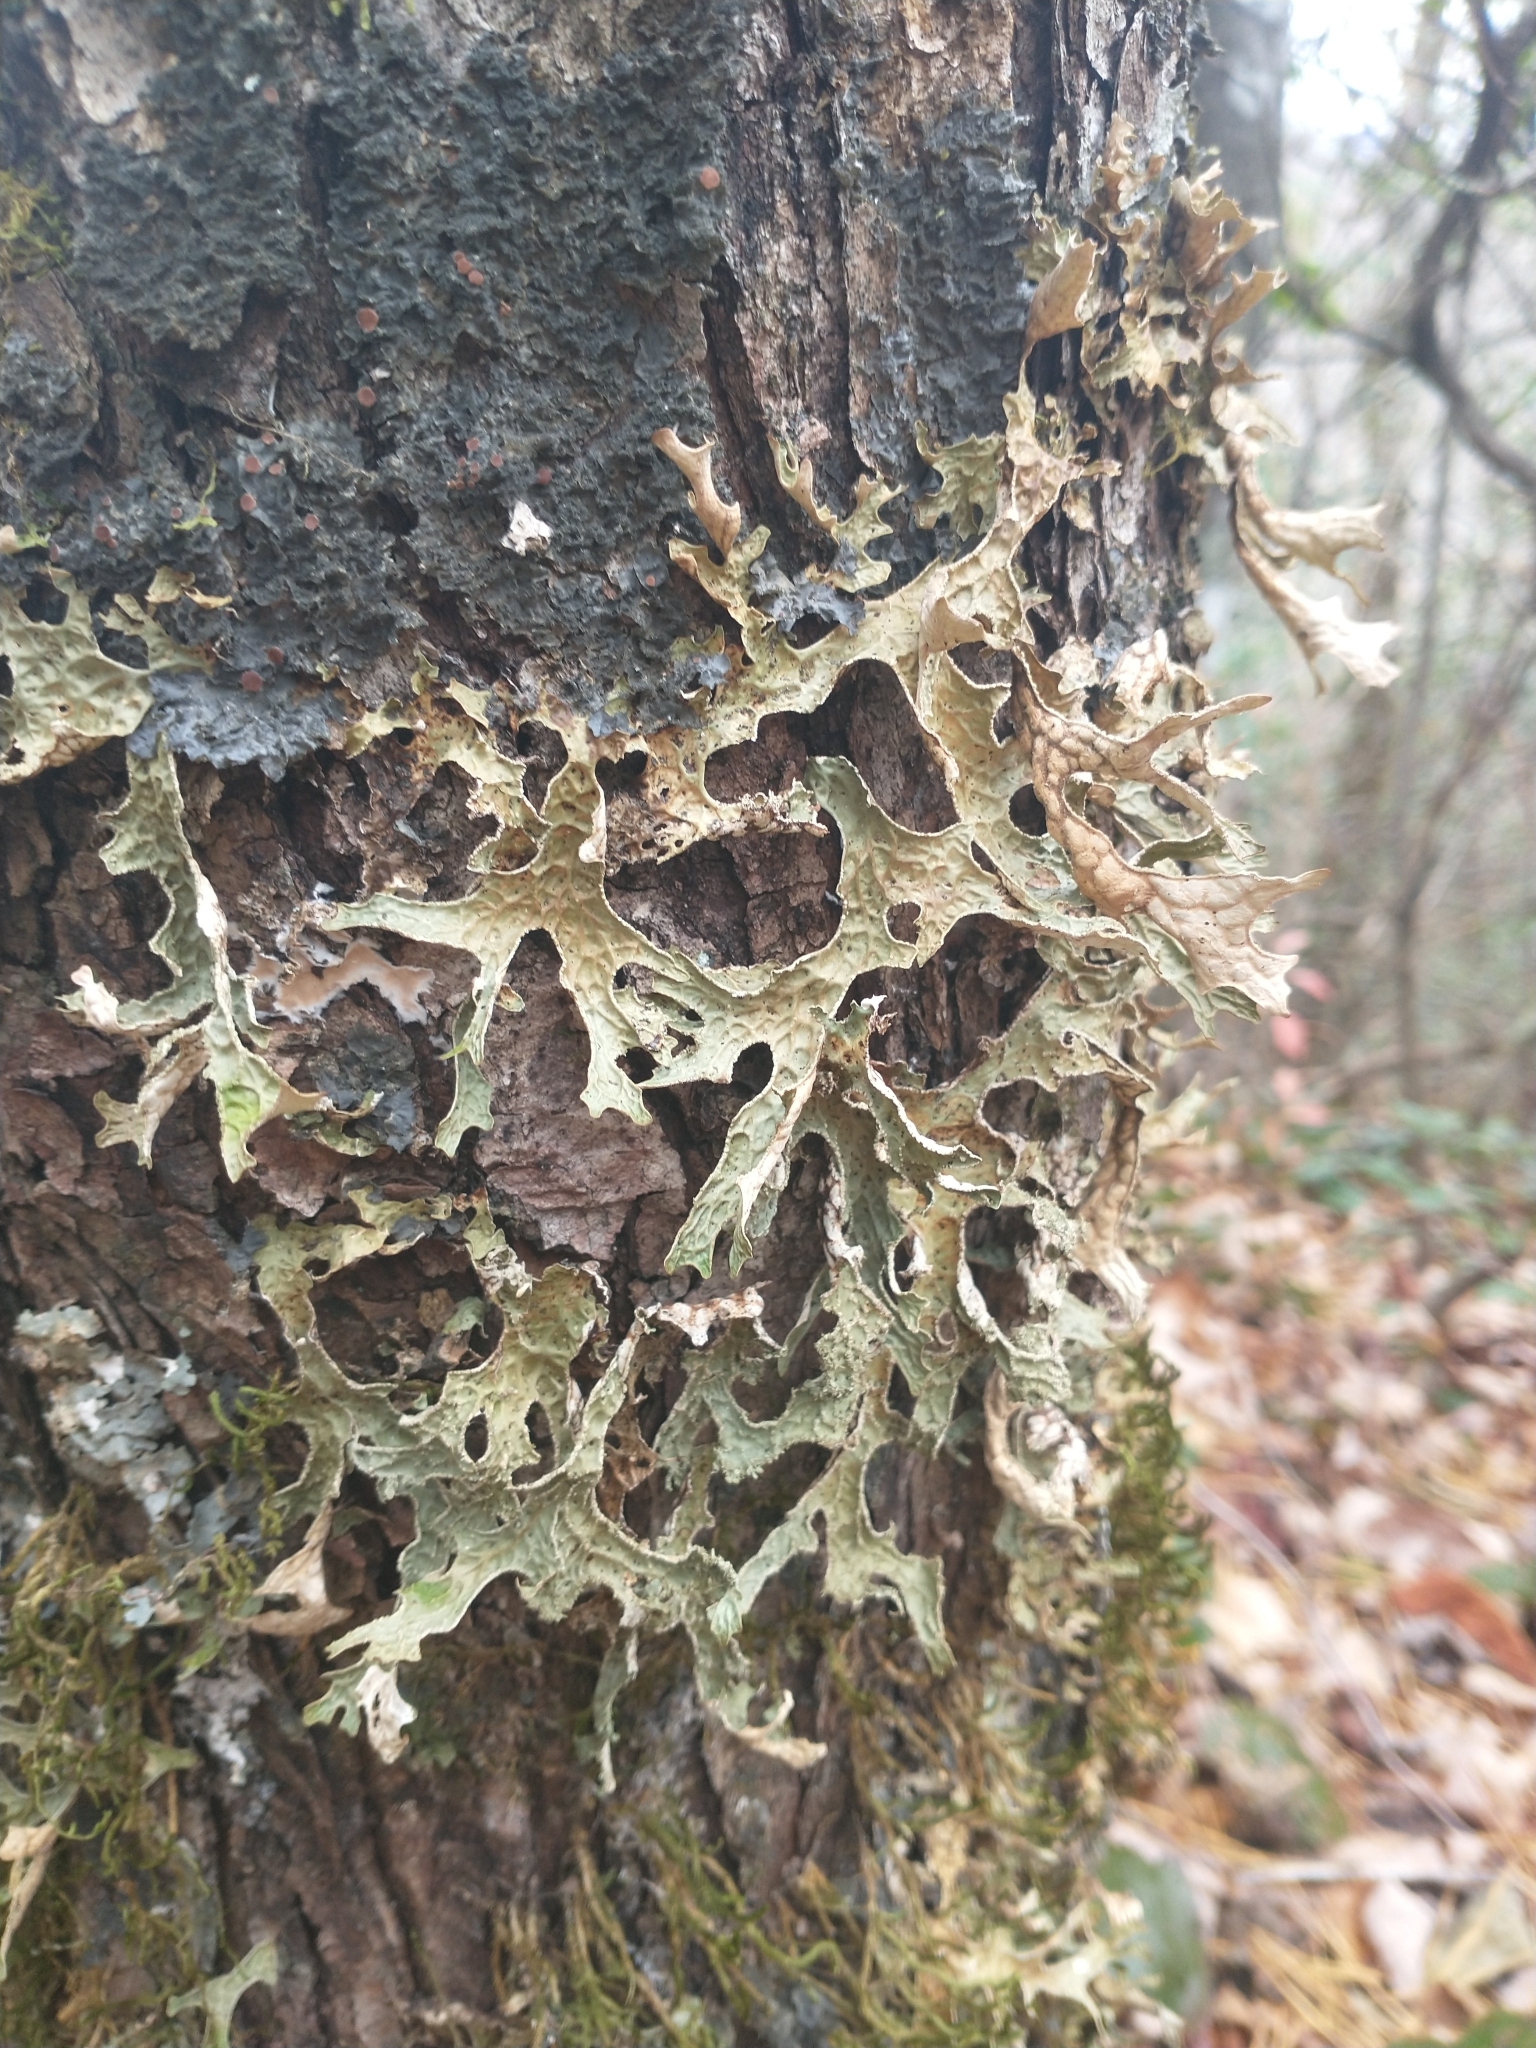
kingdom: Fungi
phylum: Ascomycota
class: Lecanoromycetes
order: Peltigerales
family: Lobariaceae
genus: Lobaria
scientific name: Lobaria pulmonaria
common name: Lungwort
